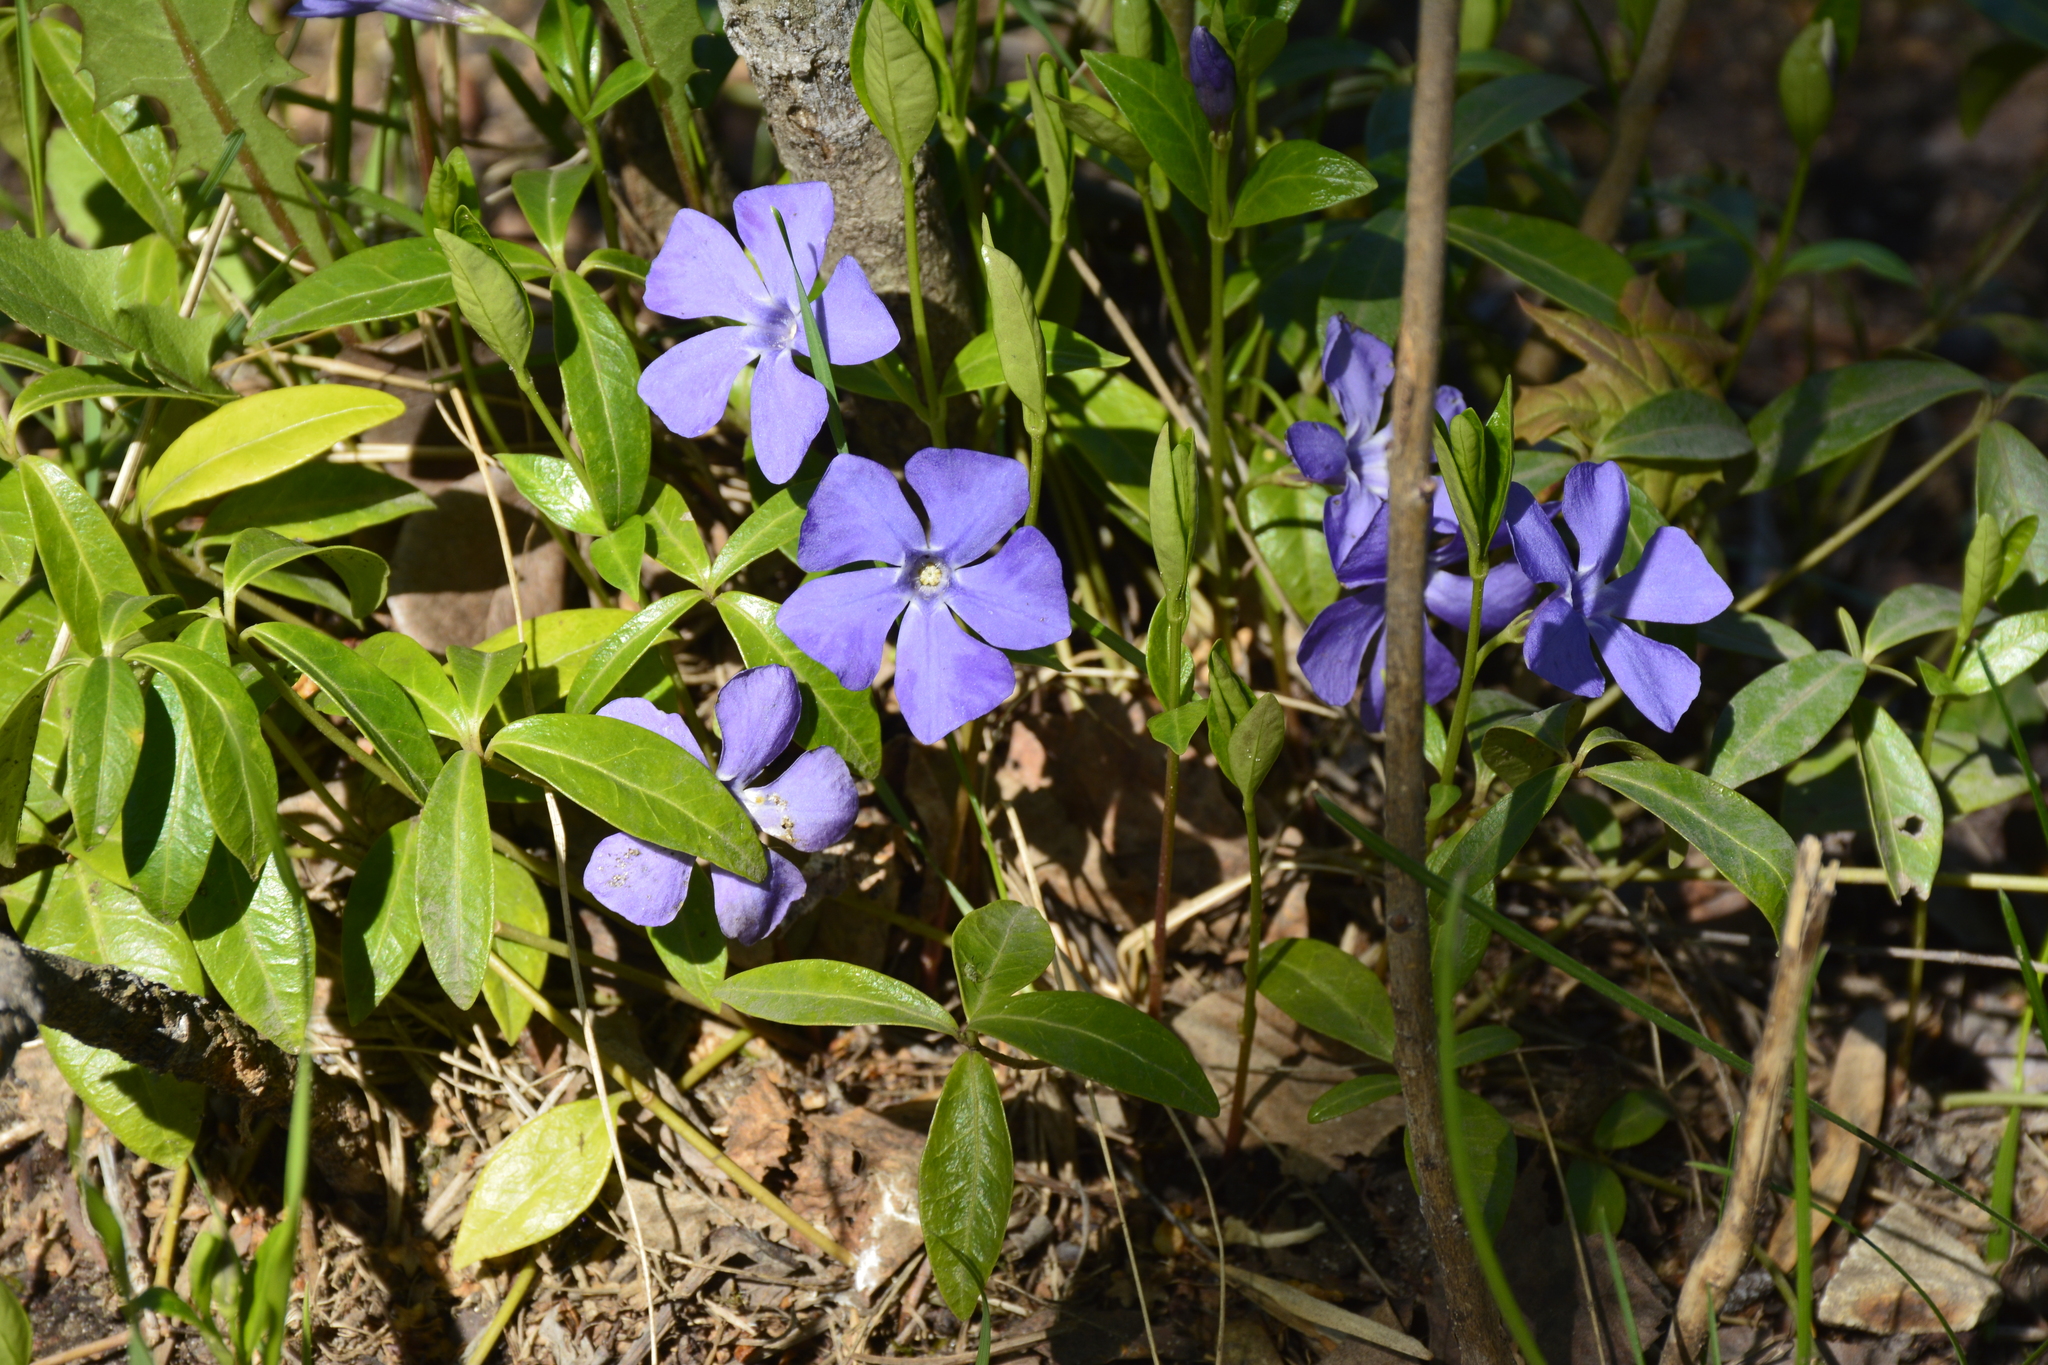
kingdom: Plantae
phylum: Tracheophyta
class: Magnoliopsida
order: Gentianales
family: Apocynaceae
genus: Vinca
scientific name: Vinca minor
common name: Lesser periwinkle
